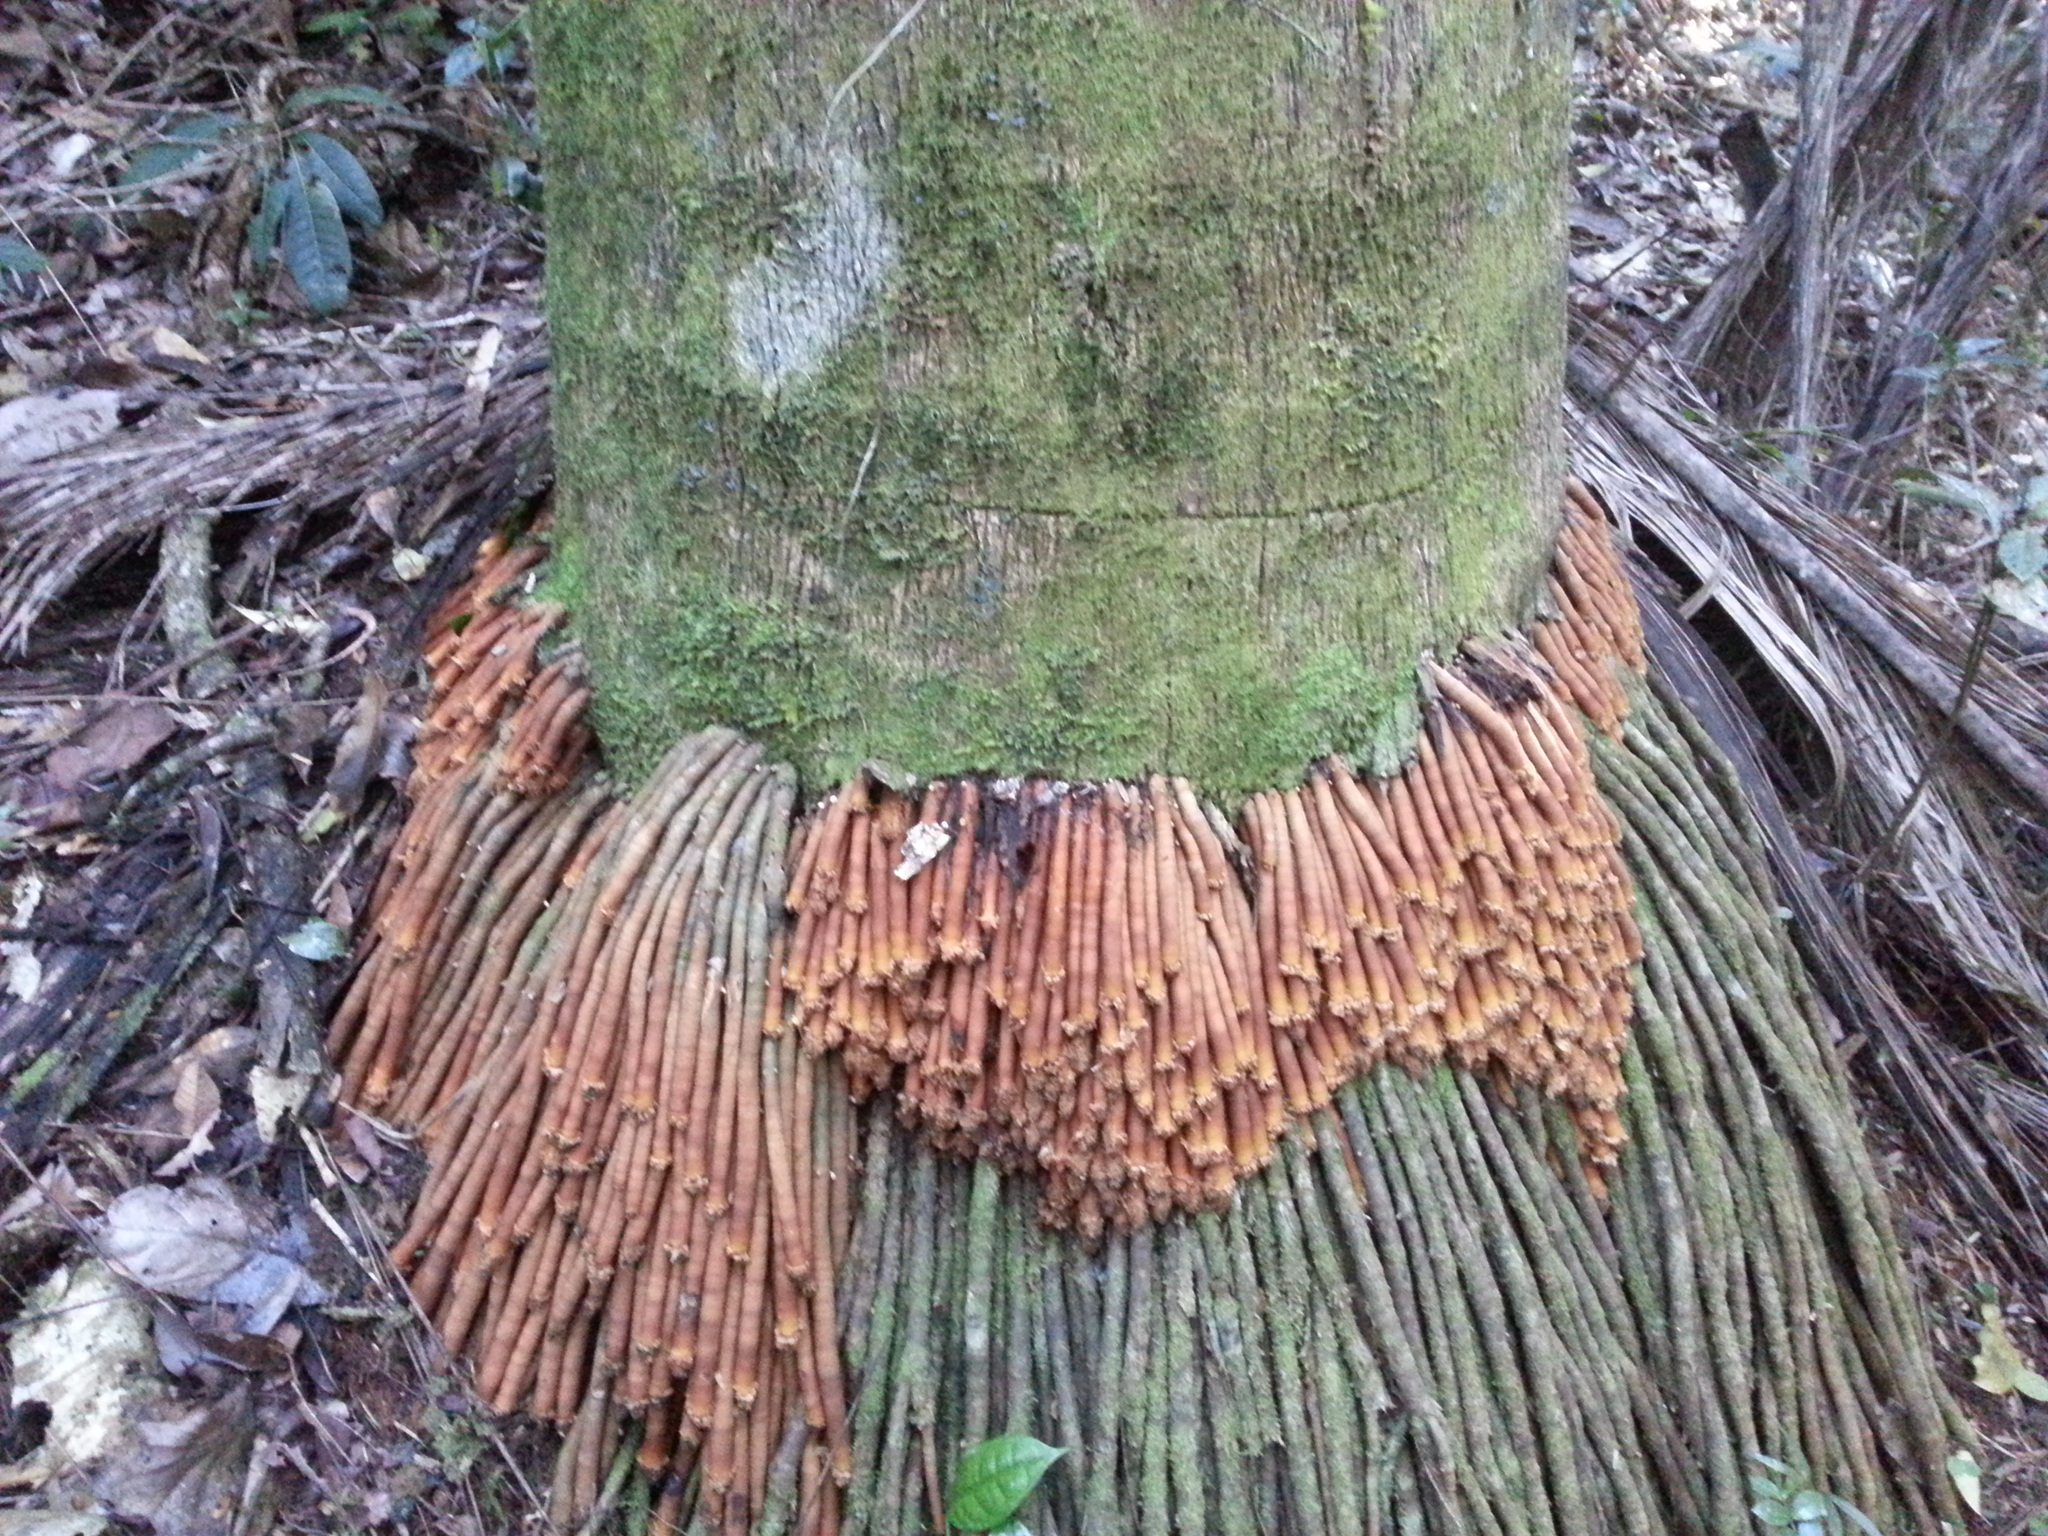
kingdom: Plantae
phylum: Tracheophyta
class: Liliopsida
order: Arecales
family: Arecaceae
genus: Ravenea
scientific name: Ravenea robustior
